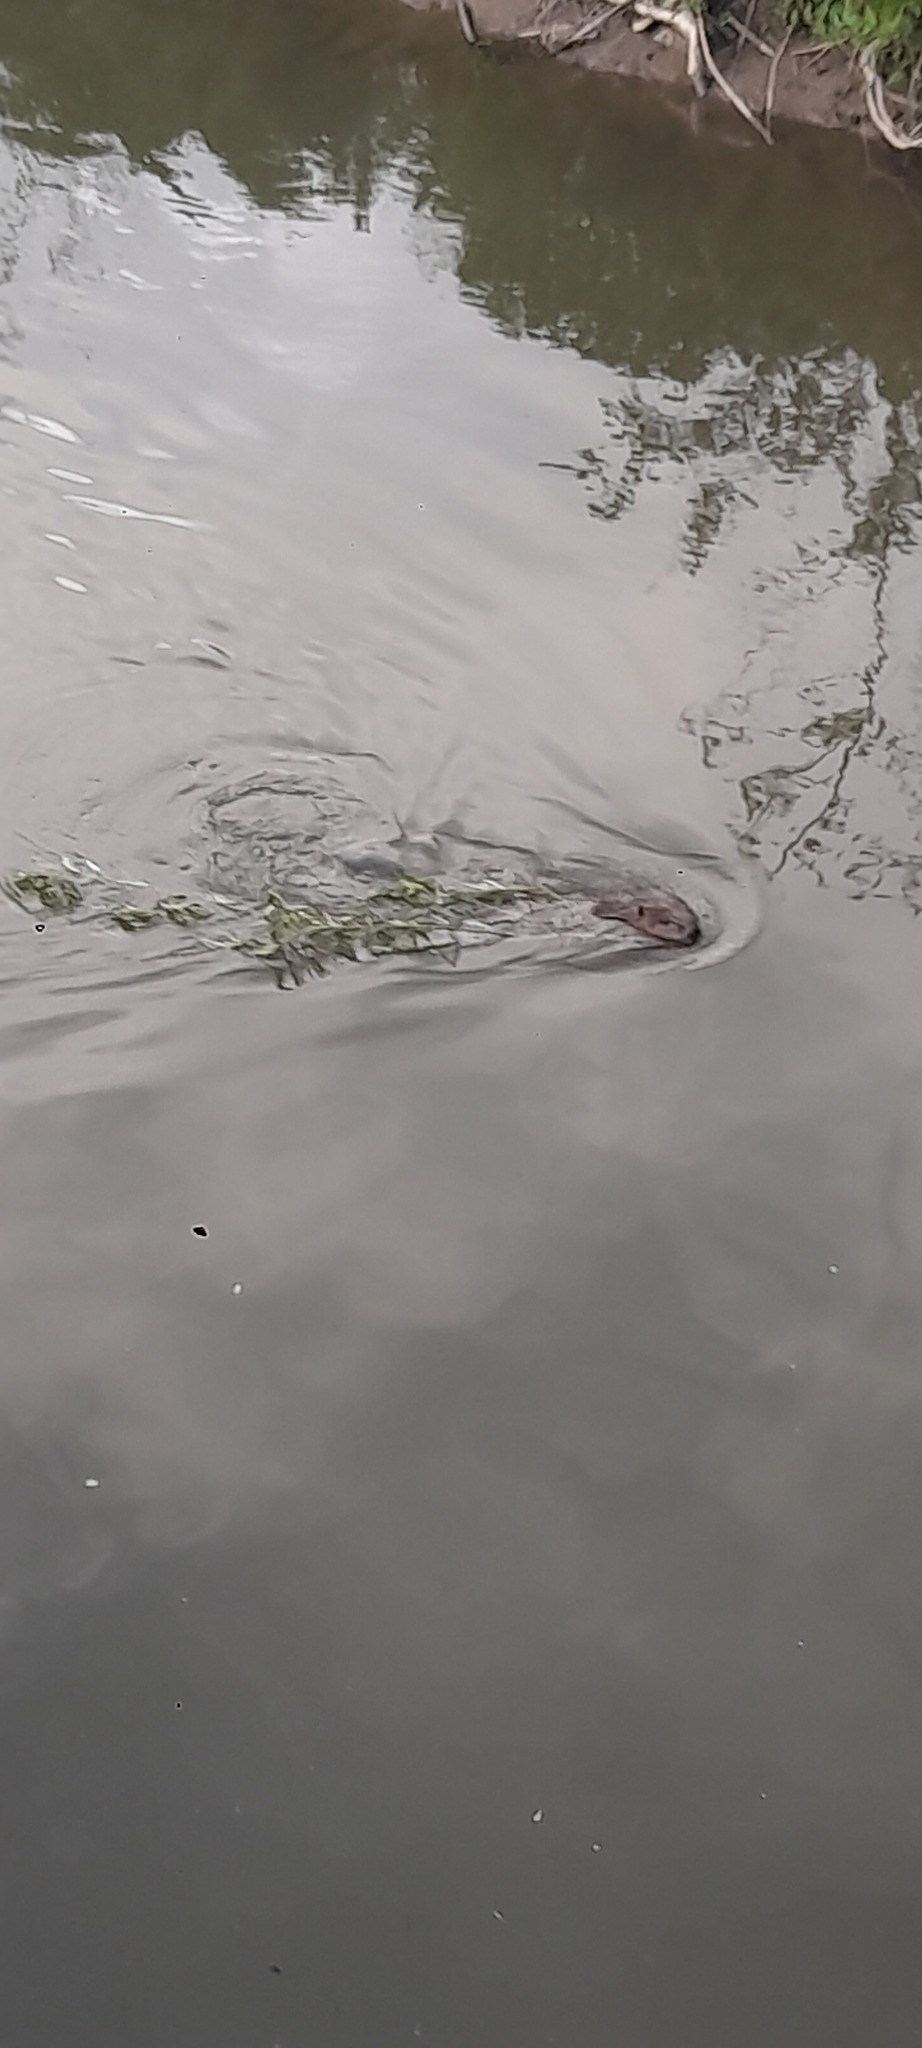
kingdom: Animalia
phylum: Chordata
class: Mammalia
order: Rodentia
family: Castoridae
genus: Castor
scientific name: Castor fiber
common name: Eurasian beaver
